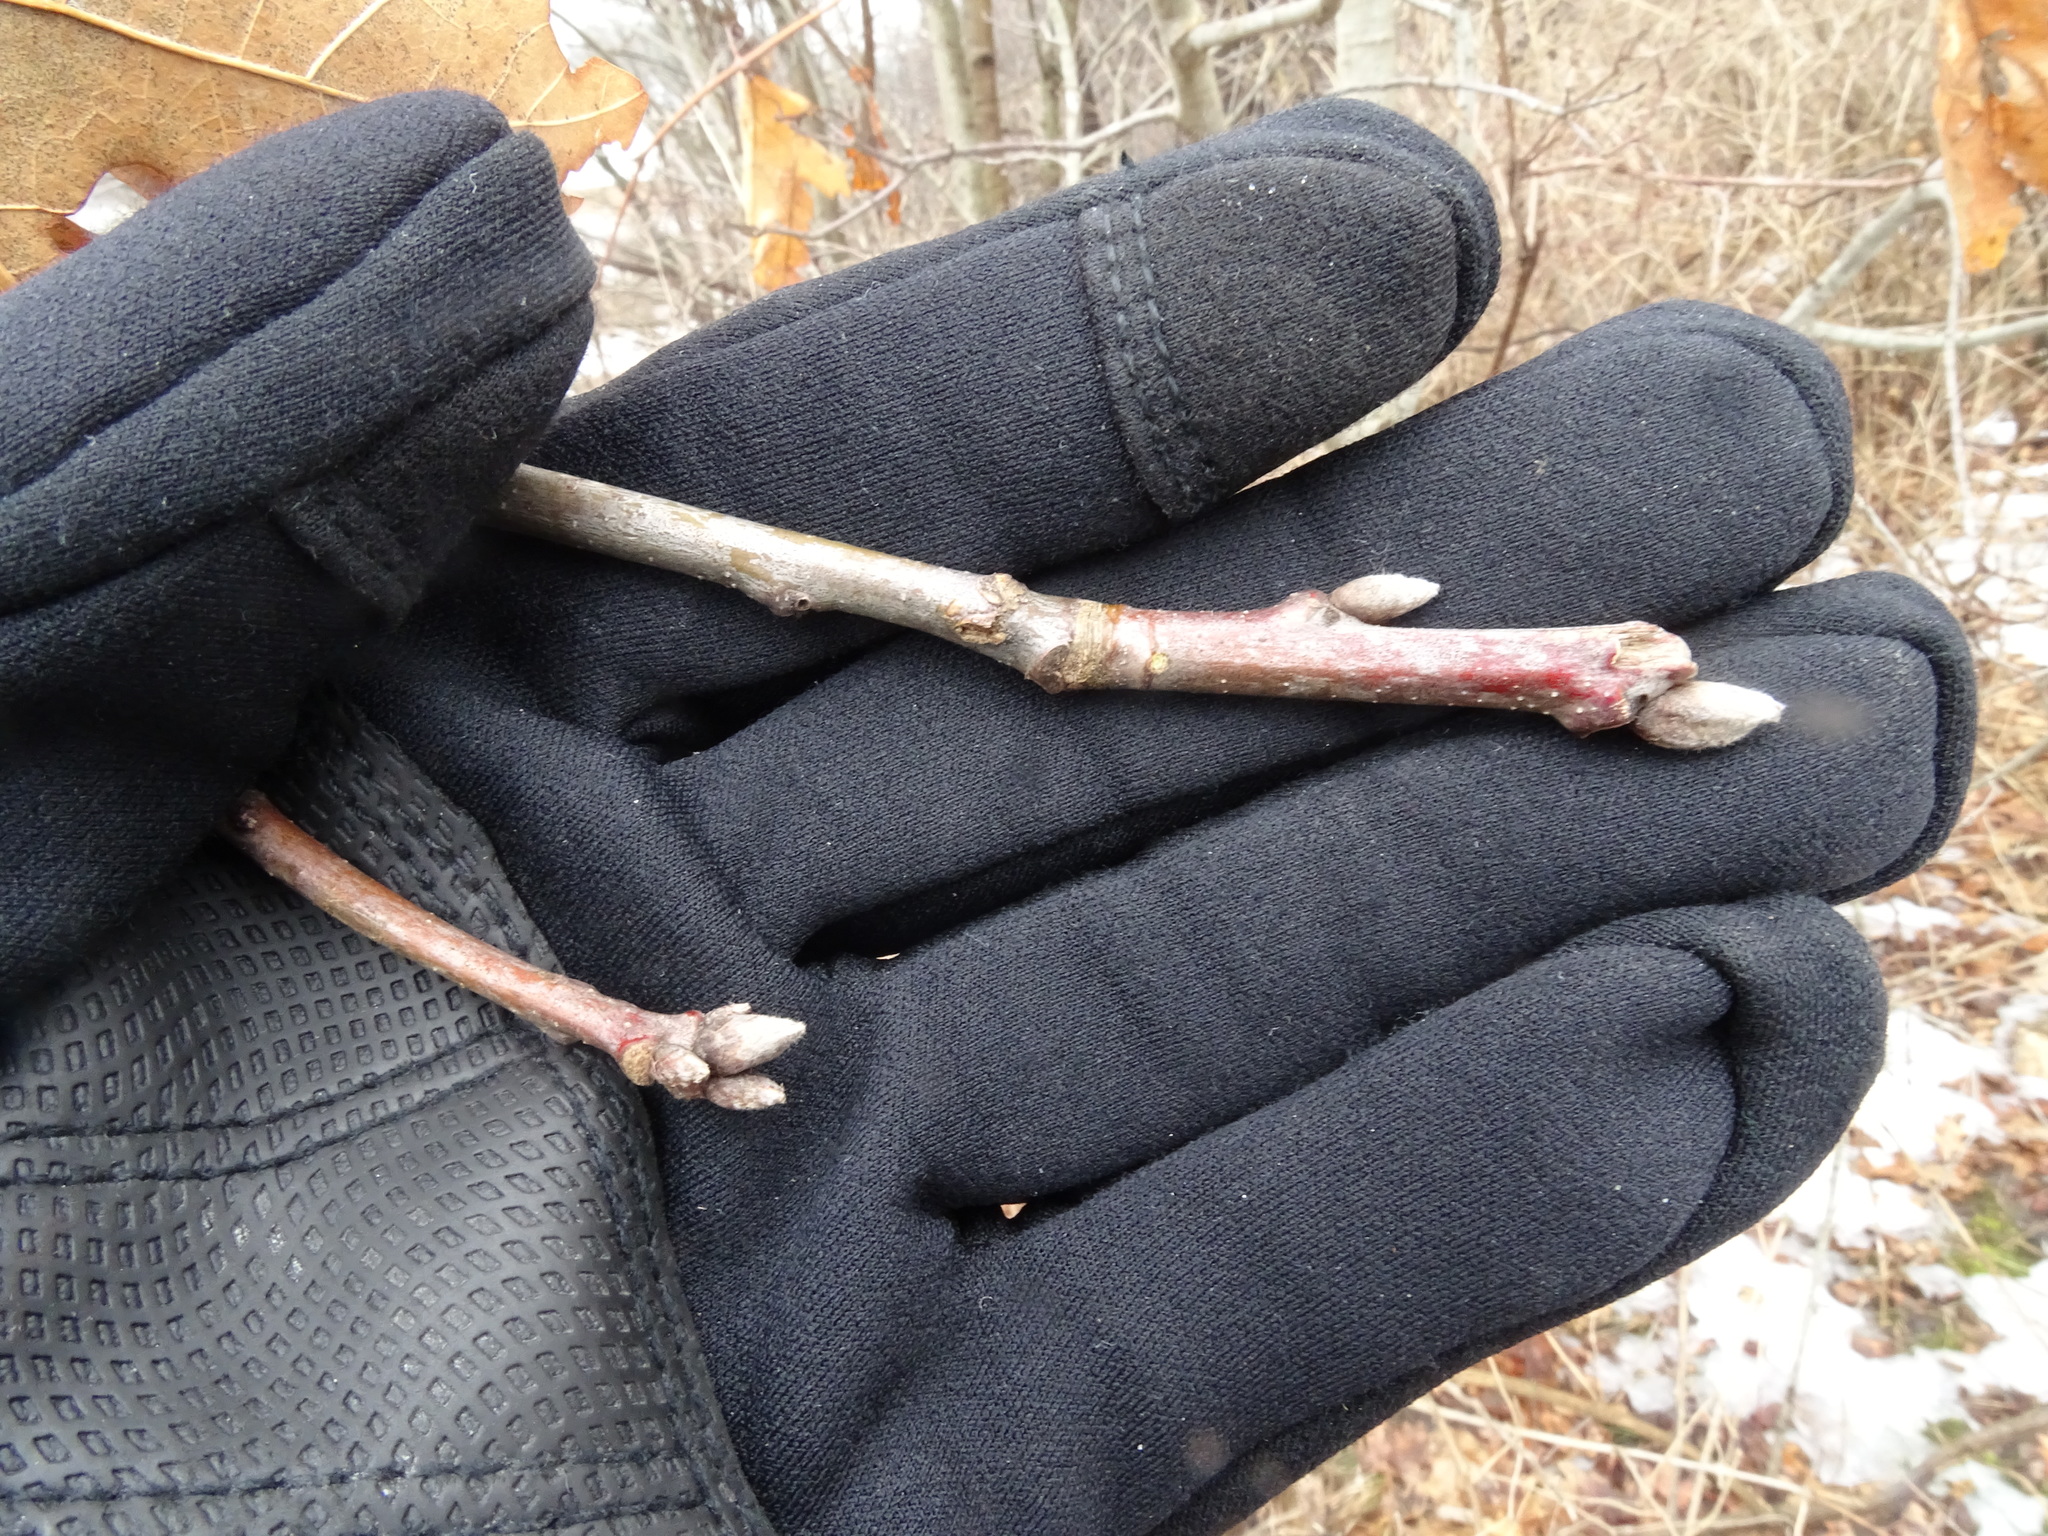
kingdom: Plantae
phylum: Tracheophyta
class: Magnoliopsida
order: Fagales
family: Fagaceae
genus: Quercus
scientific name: Quercus velutina
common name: Black oak
